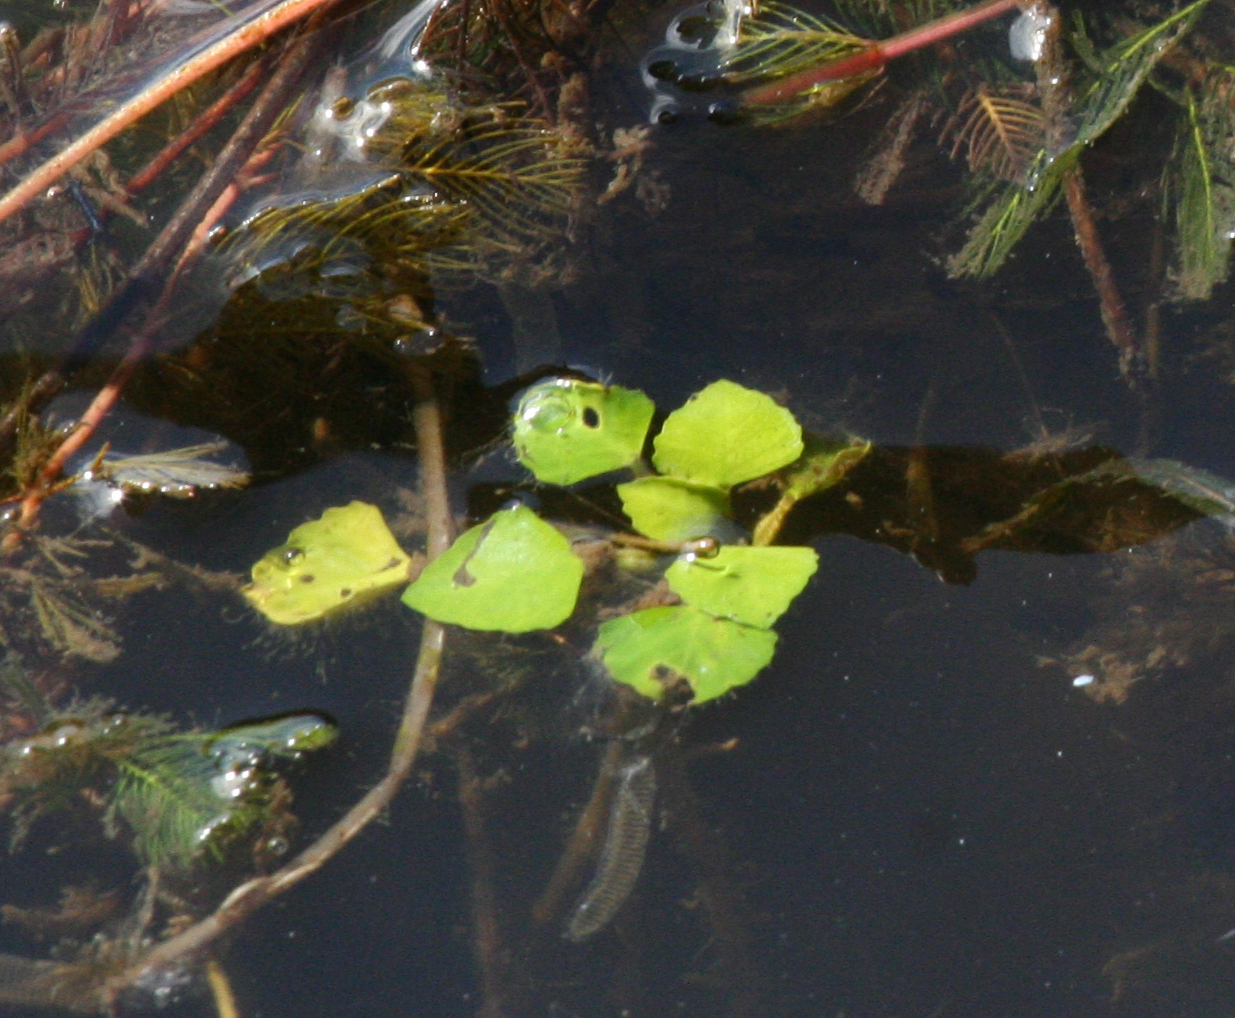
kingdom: Plantae
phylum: Tracheophyta
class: Magnoliopsida
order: Lamiales
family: Plantaginaceae
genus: Trapella
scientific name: Trapella sinensis
